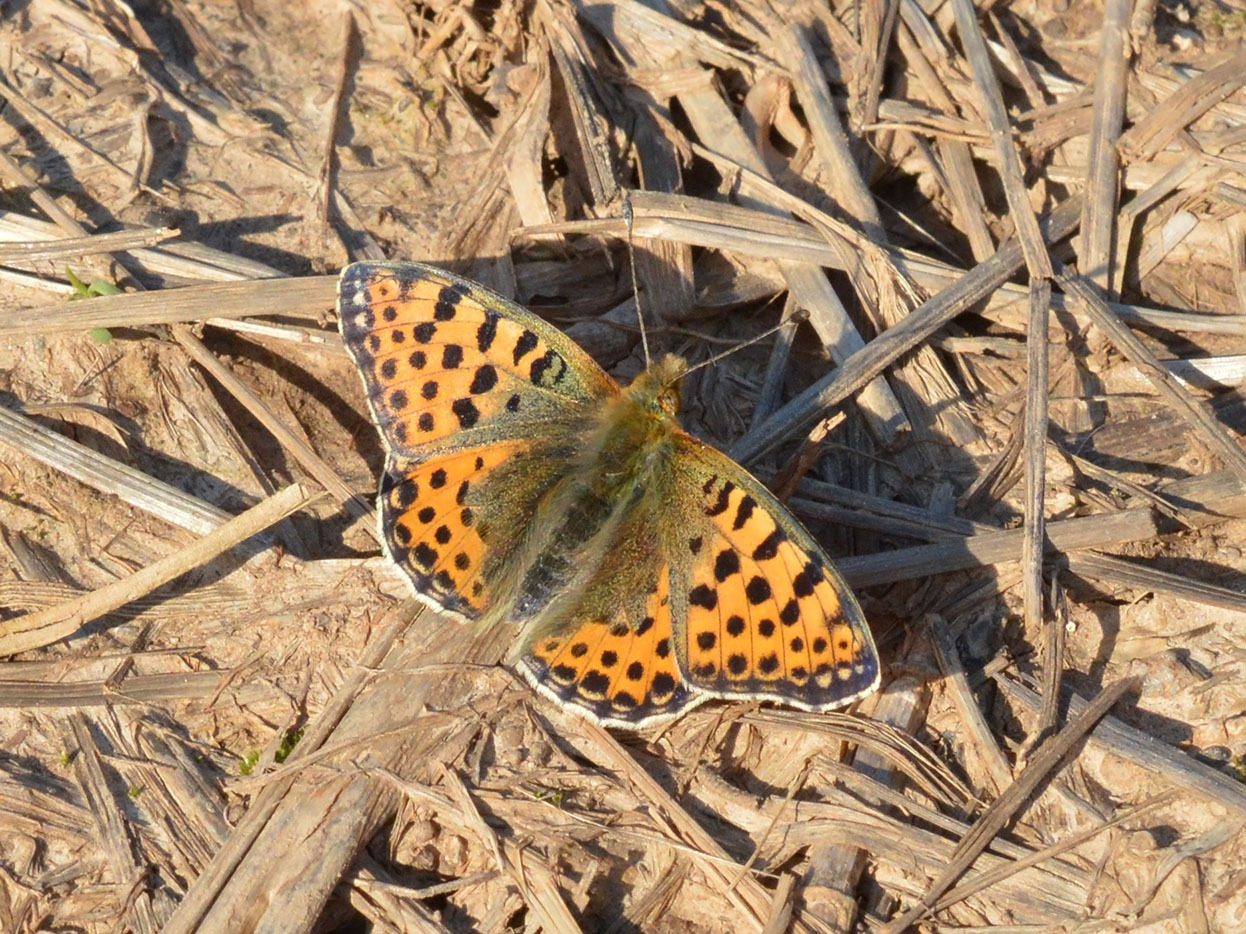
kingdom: Animalia
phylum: Arthropoda
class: Insecta
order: Lepidoptera
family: Nymphalidae
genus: Issoria
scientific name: Issoria lathonia
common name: Queen of spain fritillary
